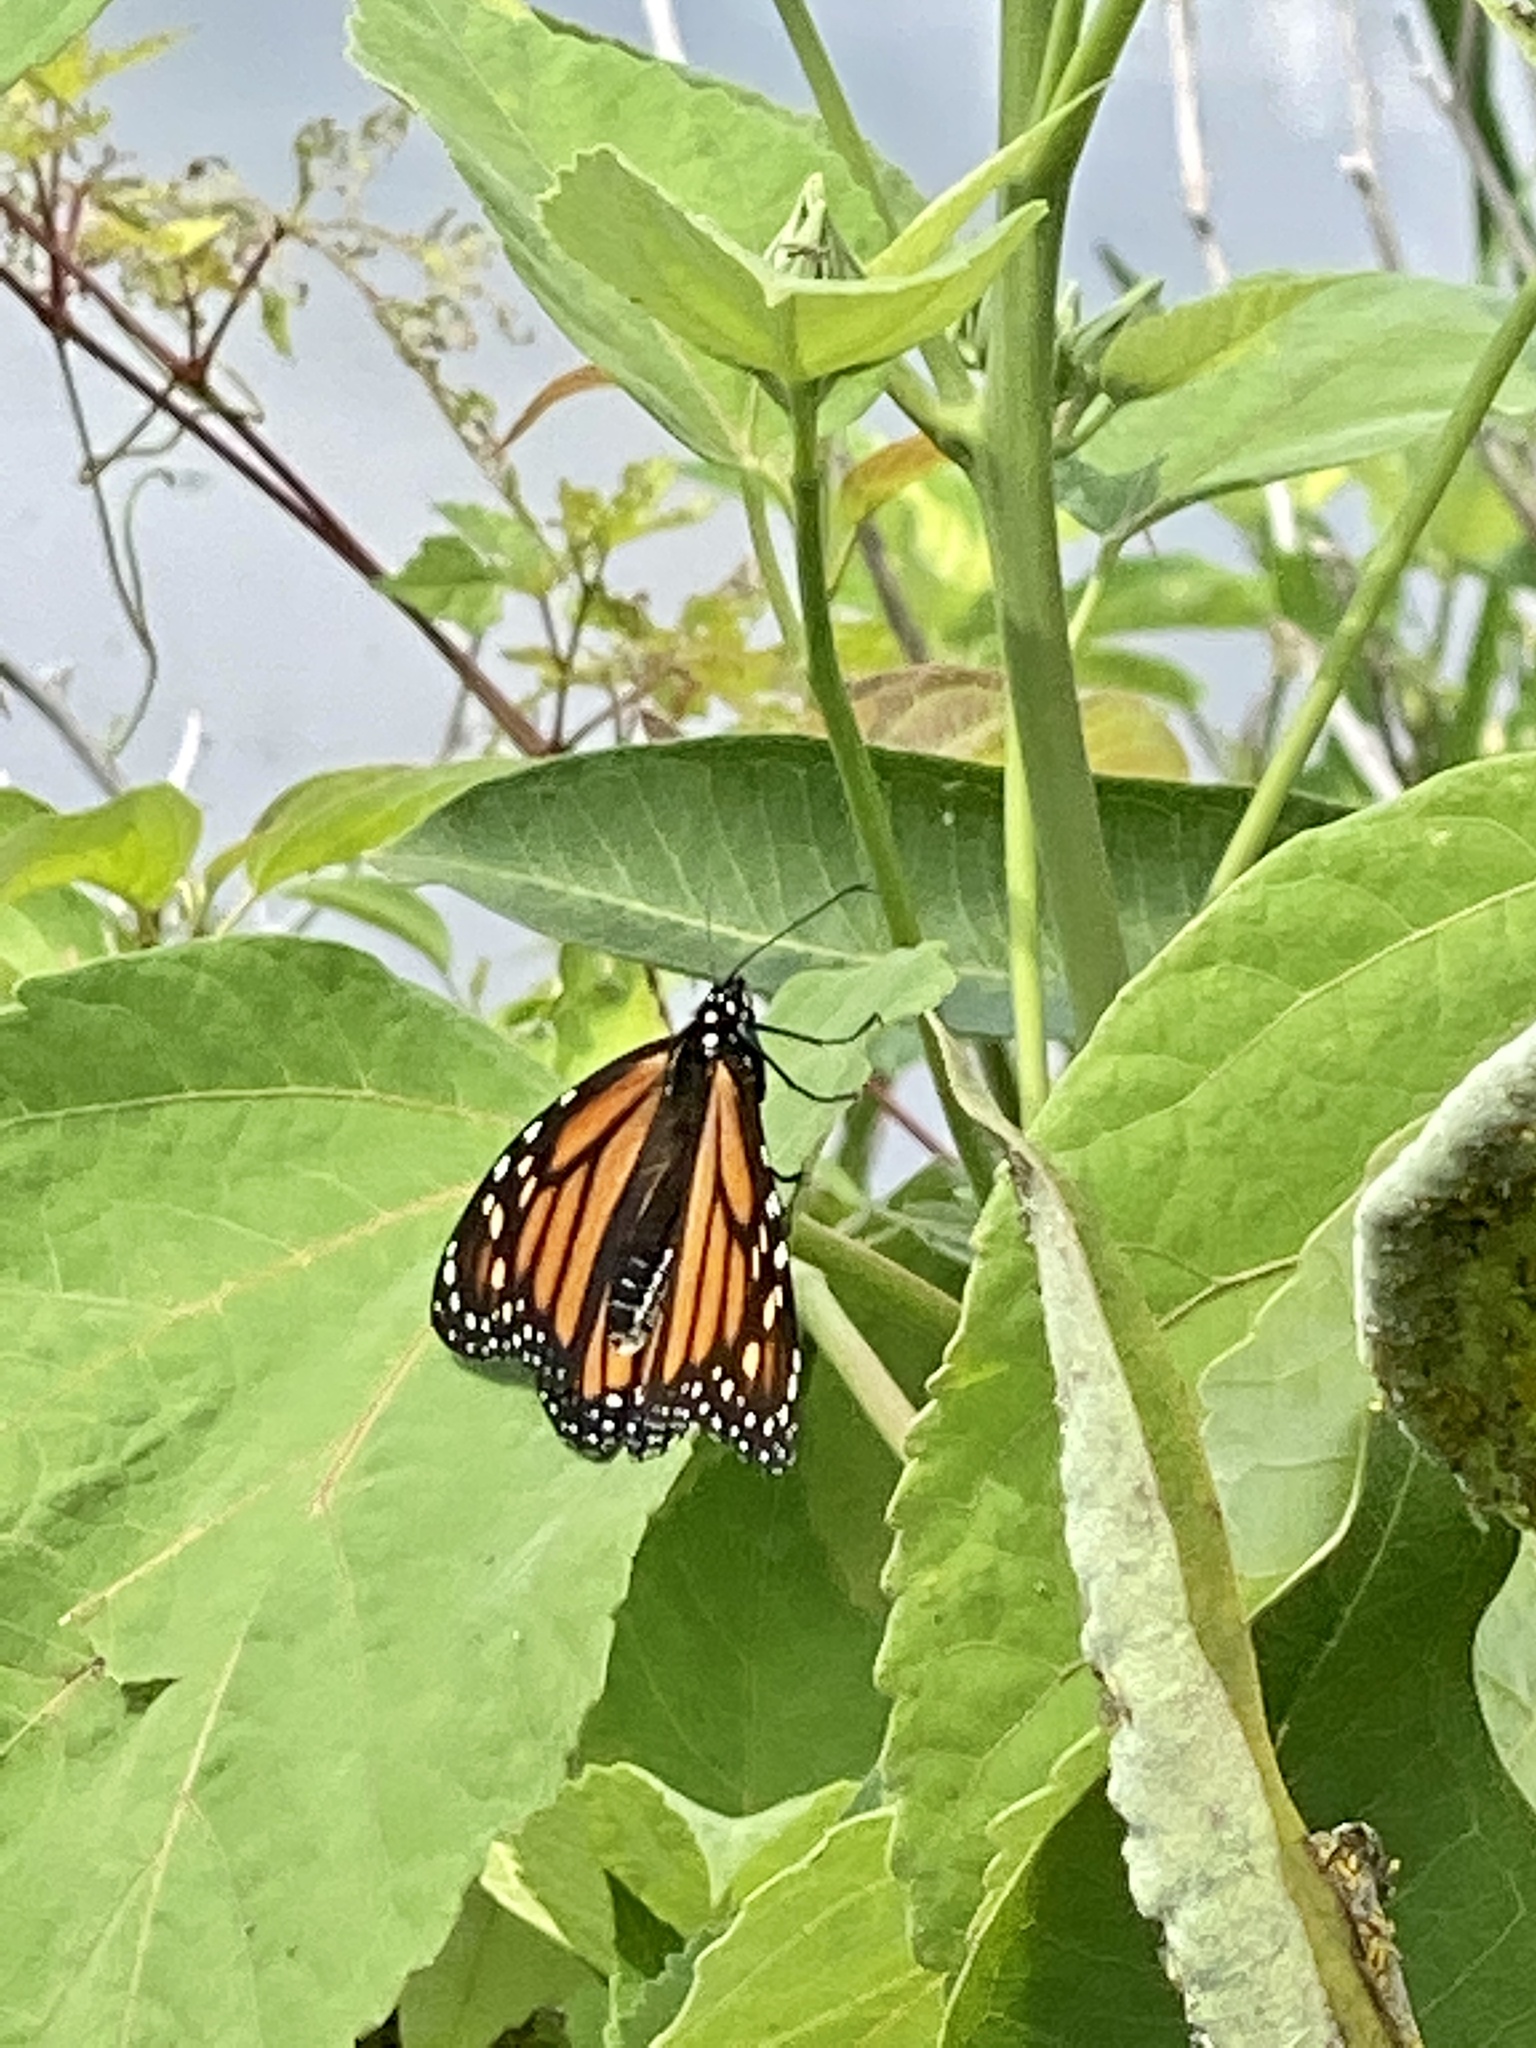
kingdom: Animalia
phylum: Arthropoda
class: Insecta
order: Lepidoptera
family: Nymphalidae
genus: Danaus
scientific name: Danaus plexippus
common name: Monarch
